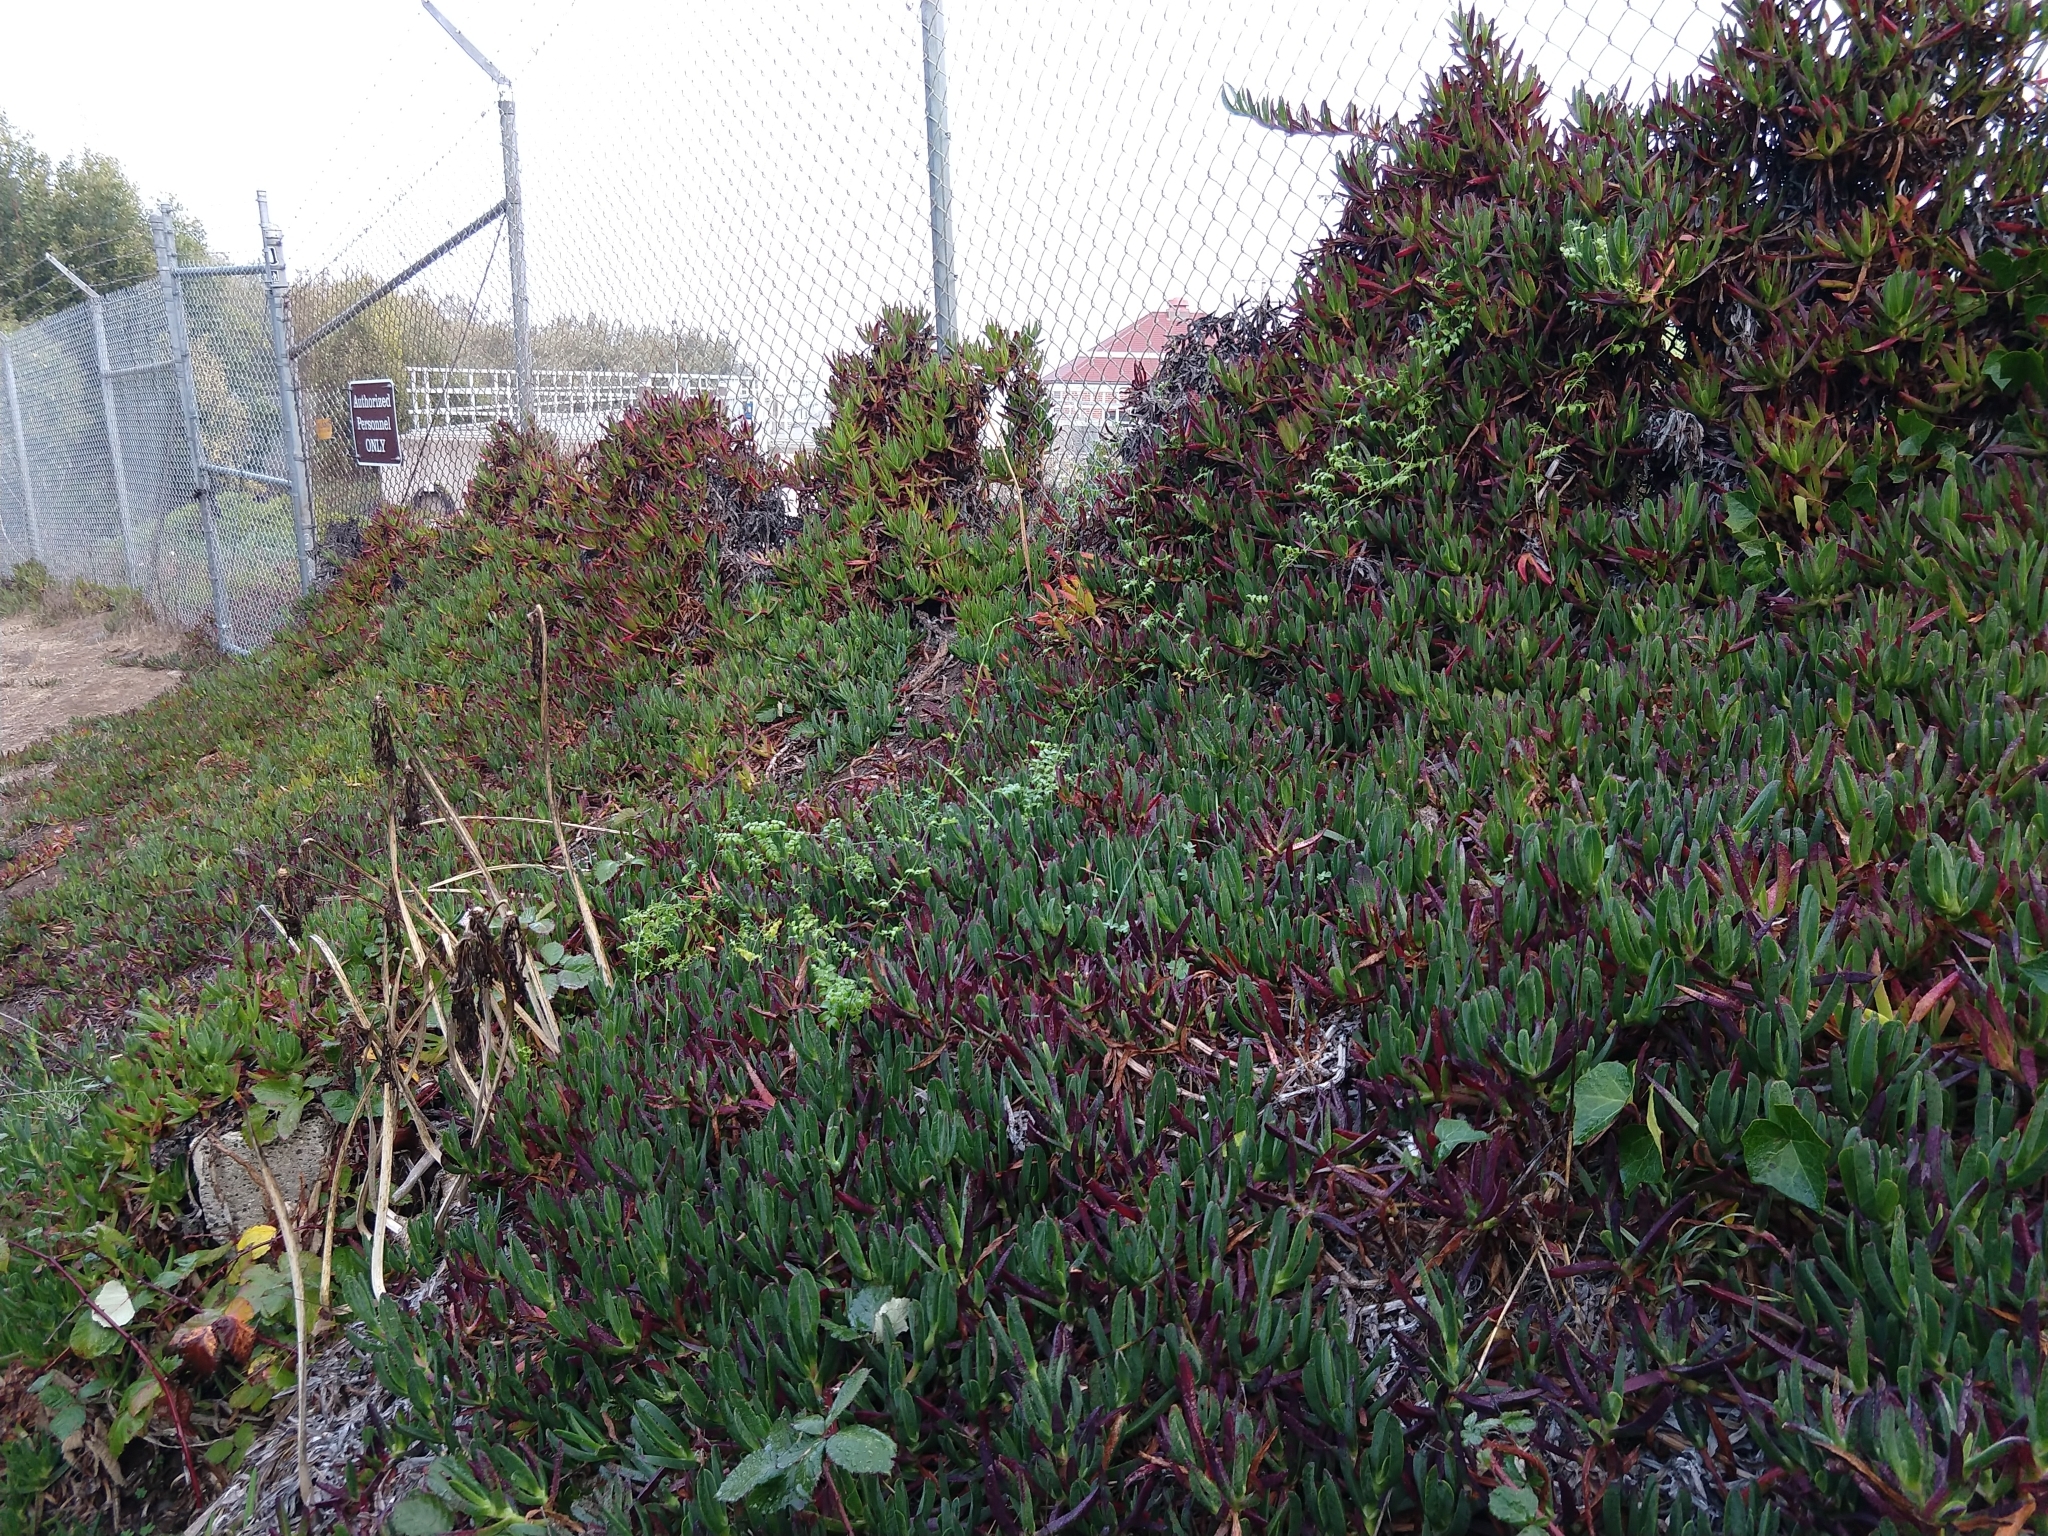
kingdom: Plantae
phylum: Tracheophyta
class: Liliopsida
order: Asparagales
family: Asparagaceae
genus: Asparagus
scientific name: Asparagus asparagoides
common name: African asparagus fern
